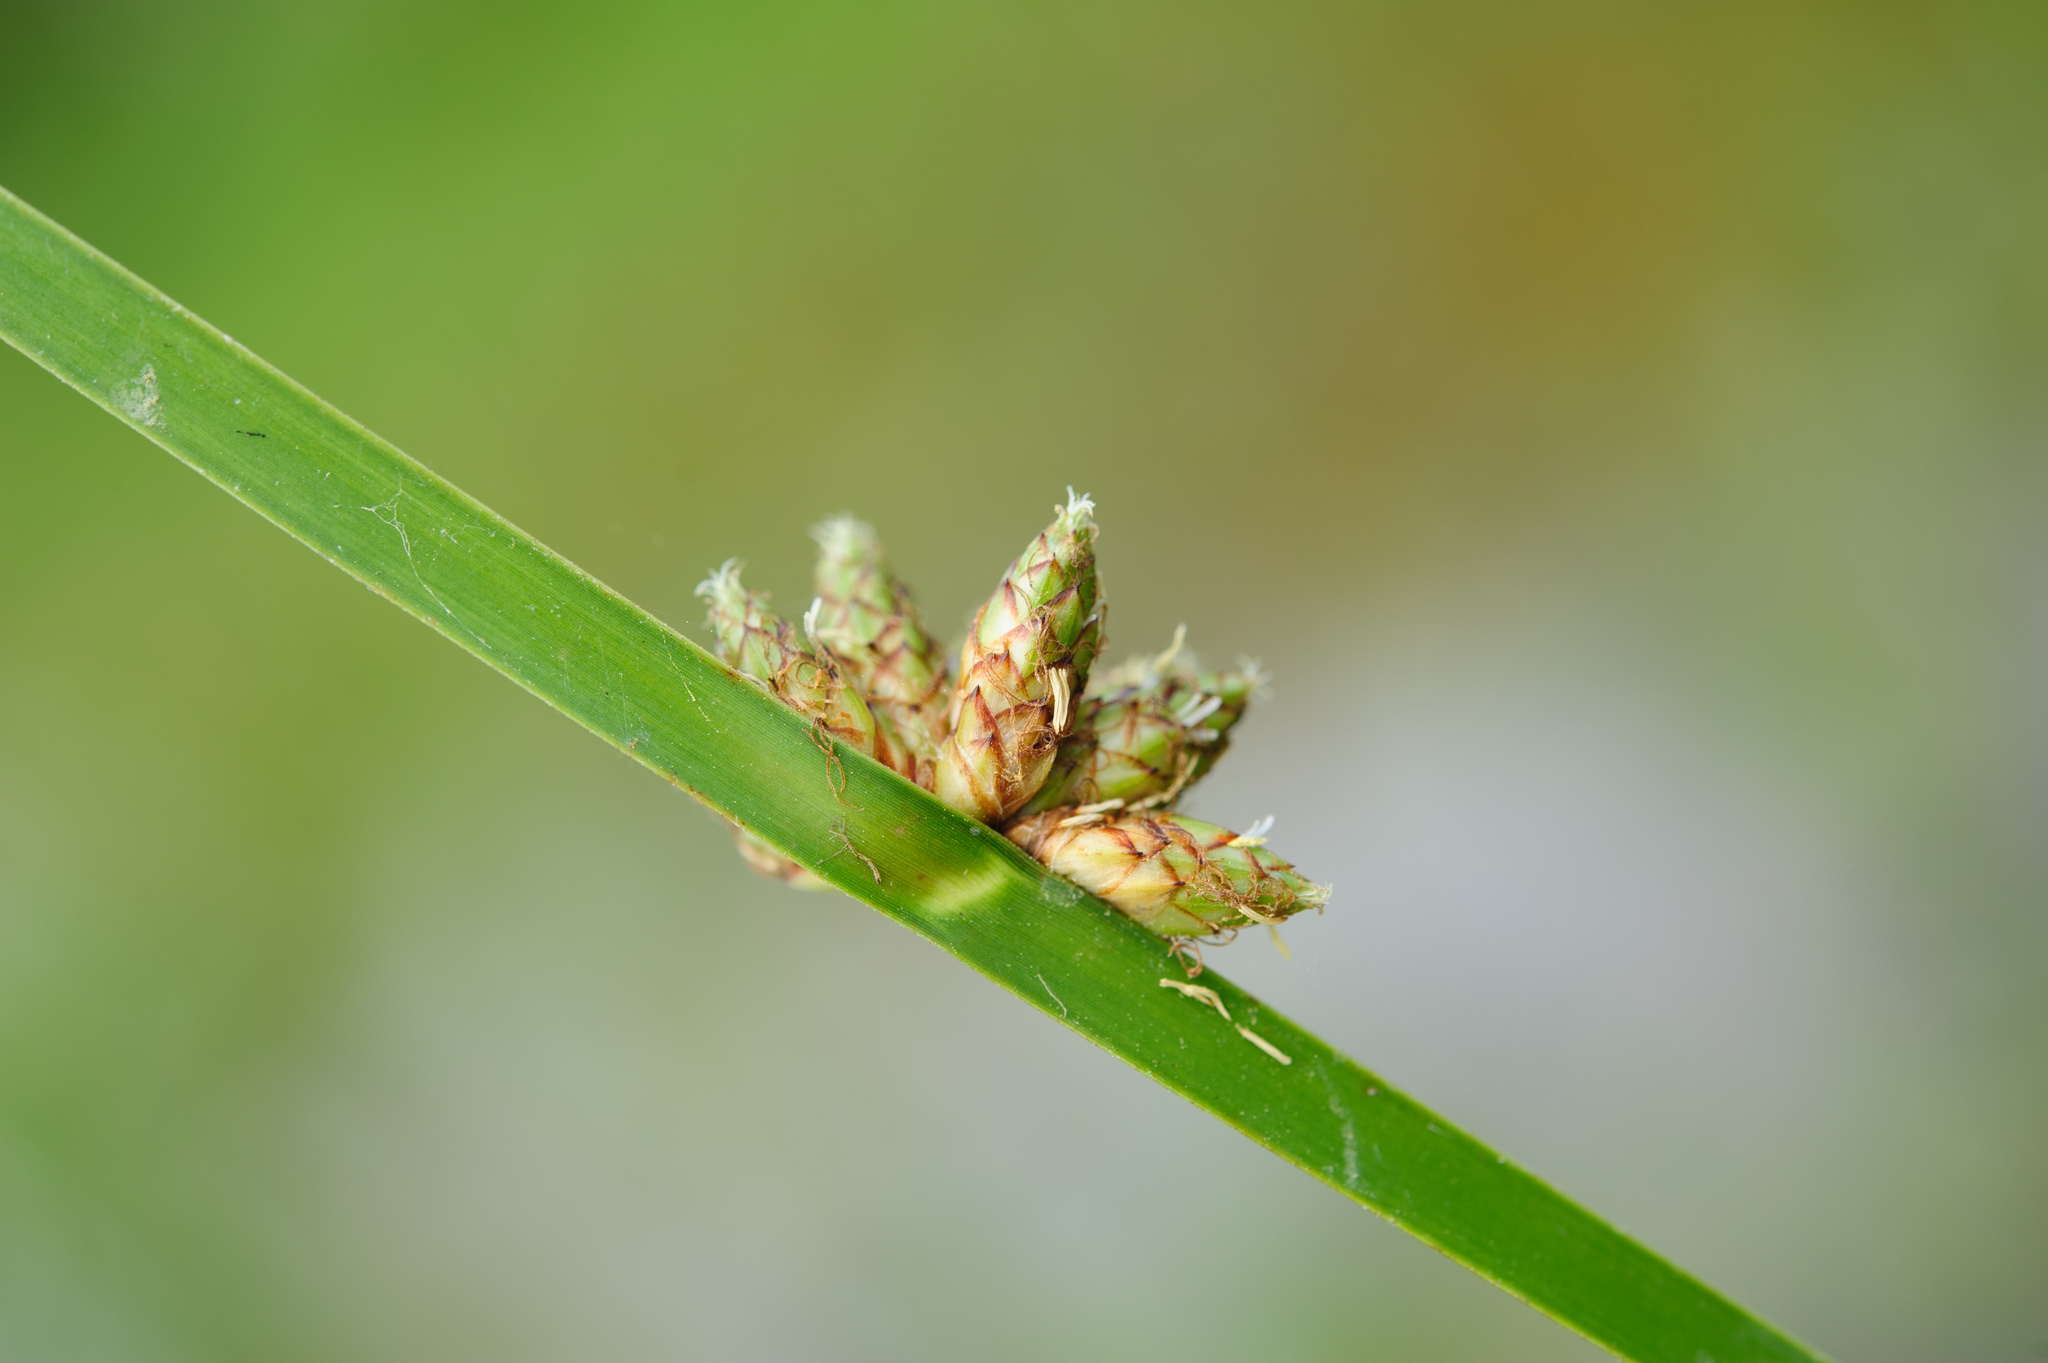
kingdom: Plantae
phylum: Tracheophyta
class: Liliopsida
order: Poales
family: Cyperaceae
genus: Schoenoplectiella
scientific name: Schoenoplectiella mucronata
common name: Bog bulrush
